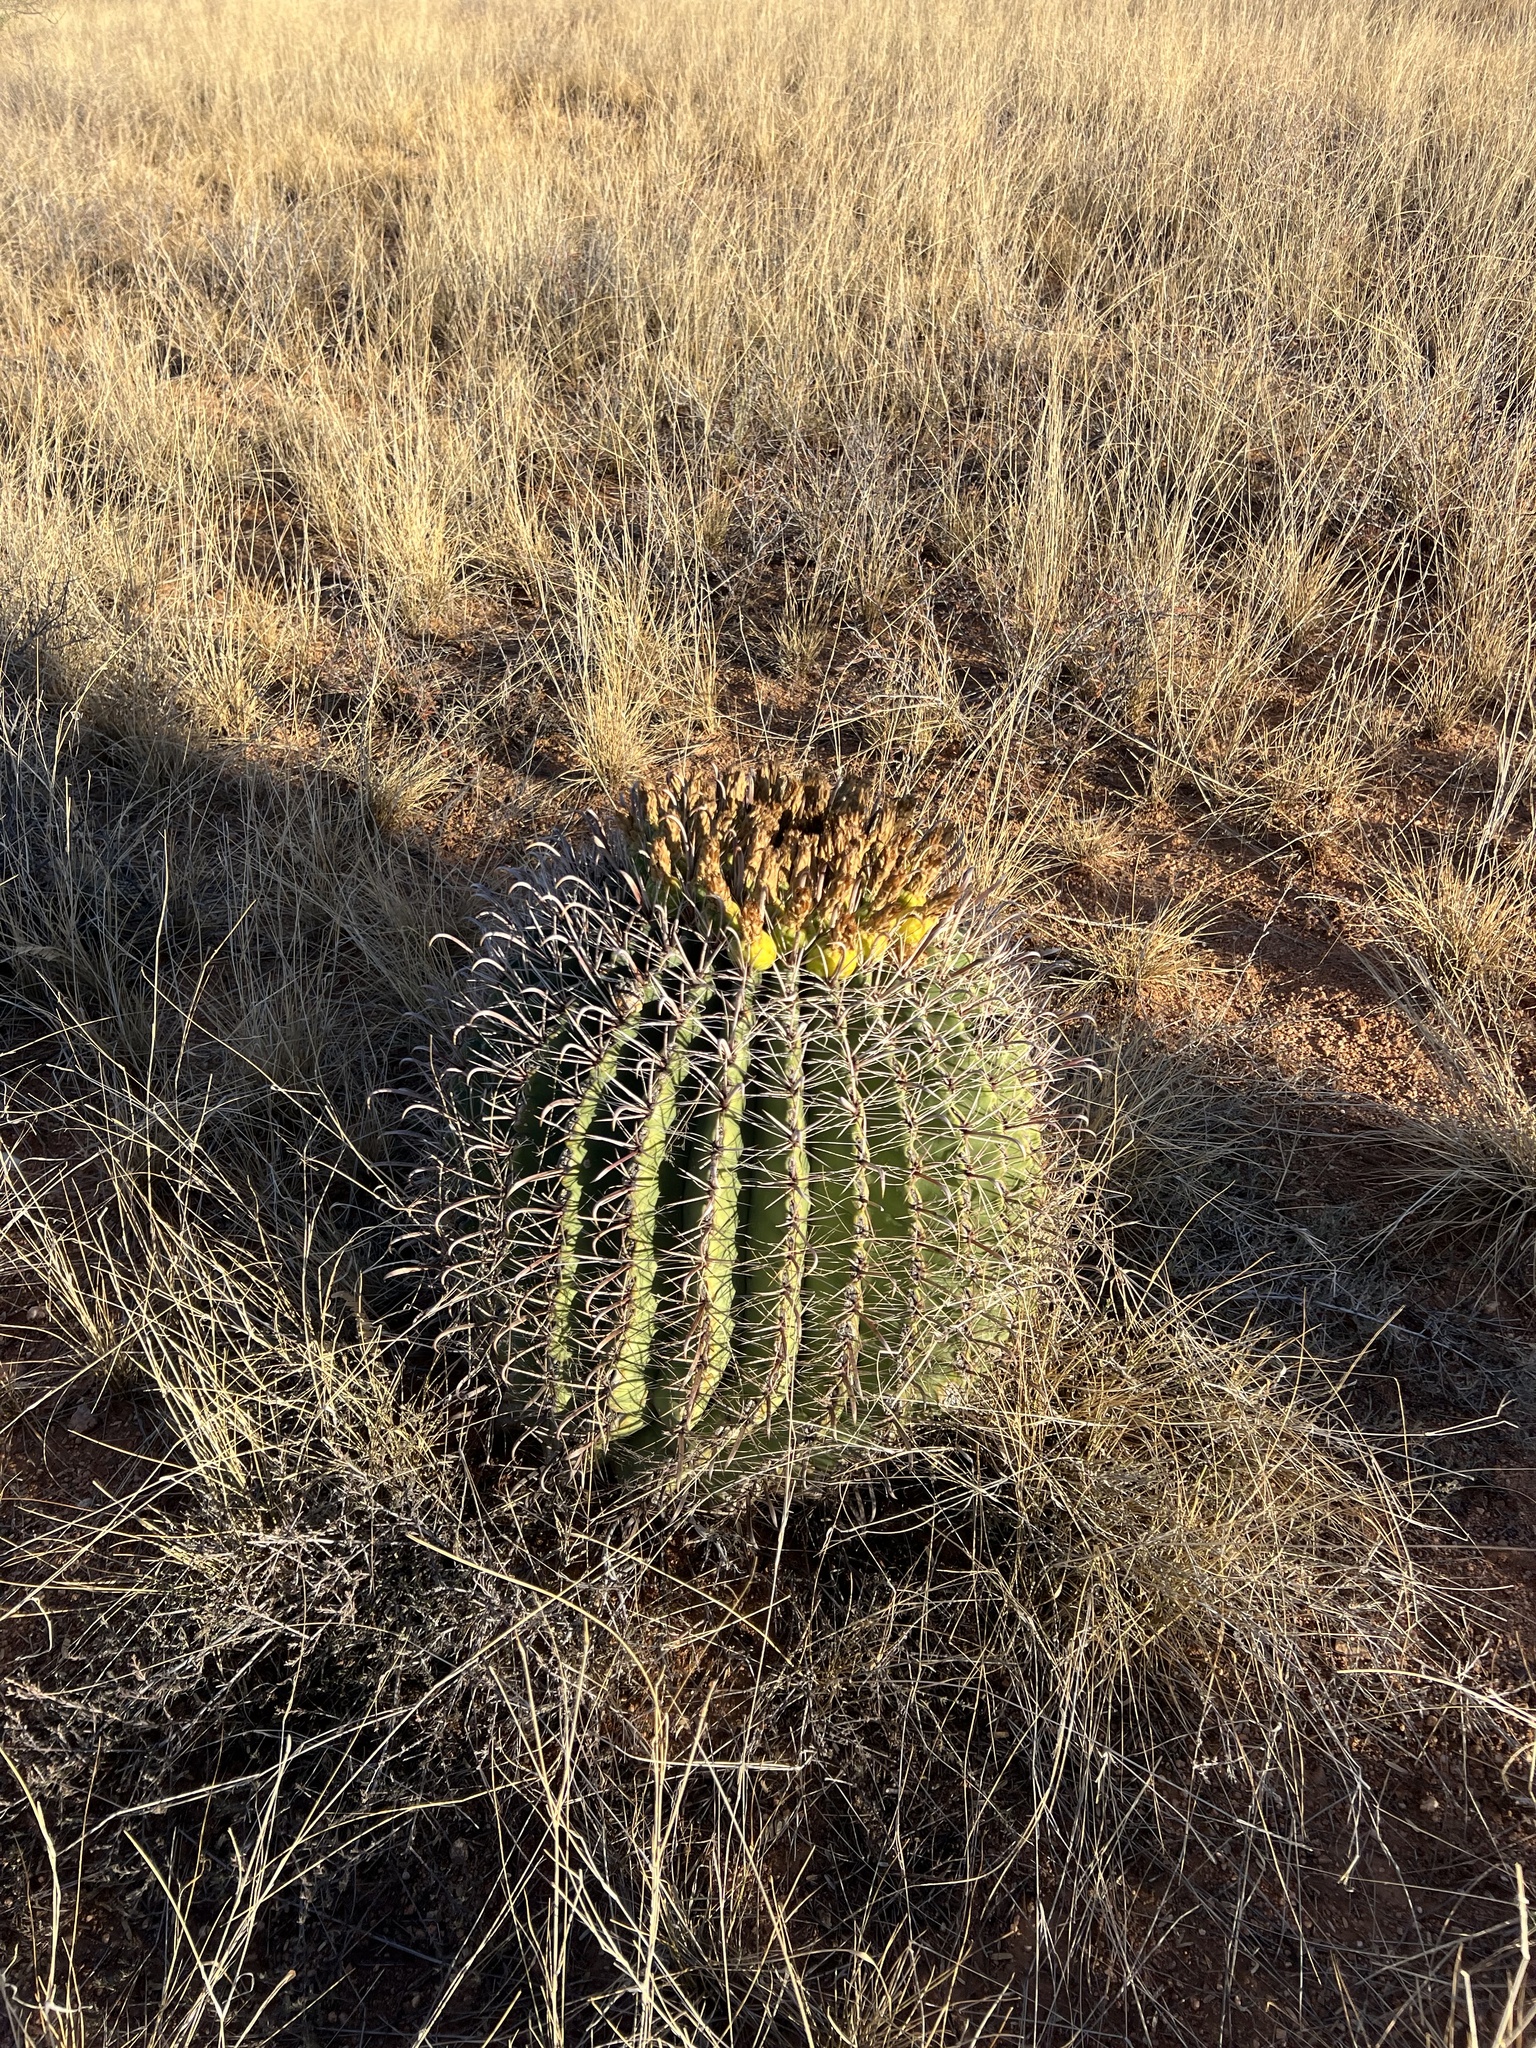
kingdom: Plantae
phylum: Tracheophyta
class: Magnoliopsida
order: Caryophyllales
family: Cactaceae
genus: Ferocactus
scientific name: Ferocactus wislizeni
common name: Candy barrel cactus
